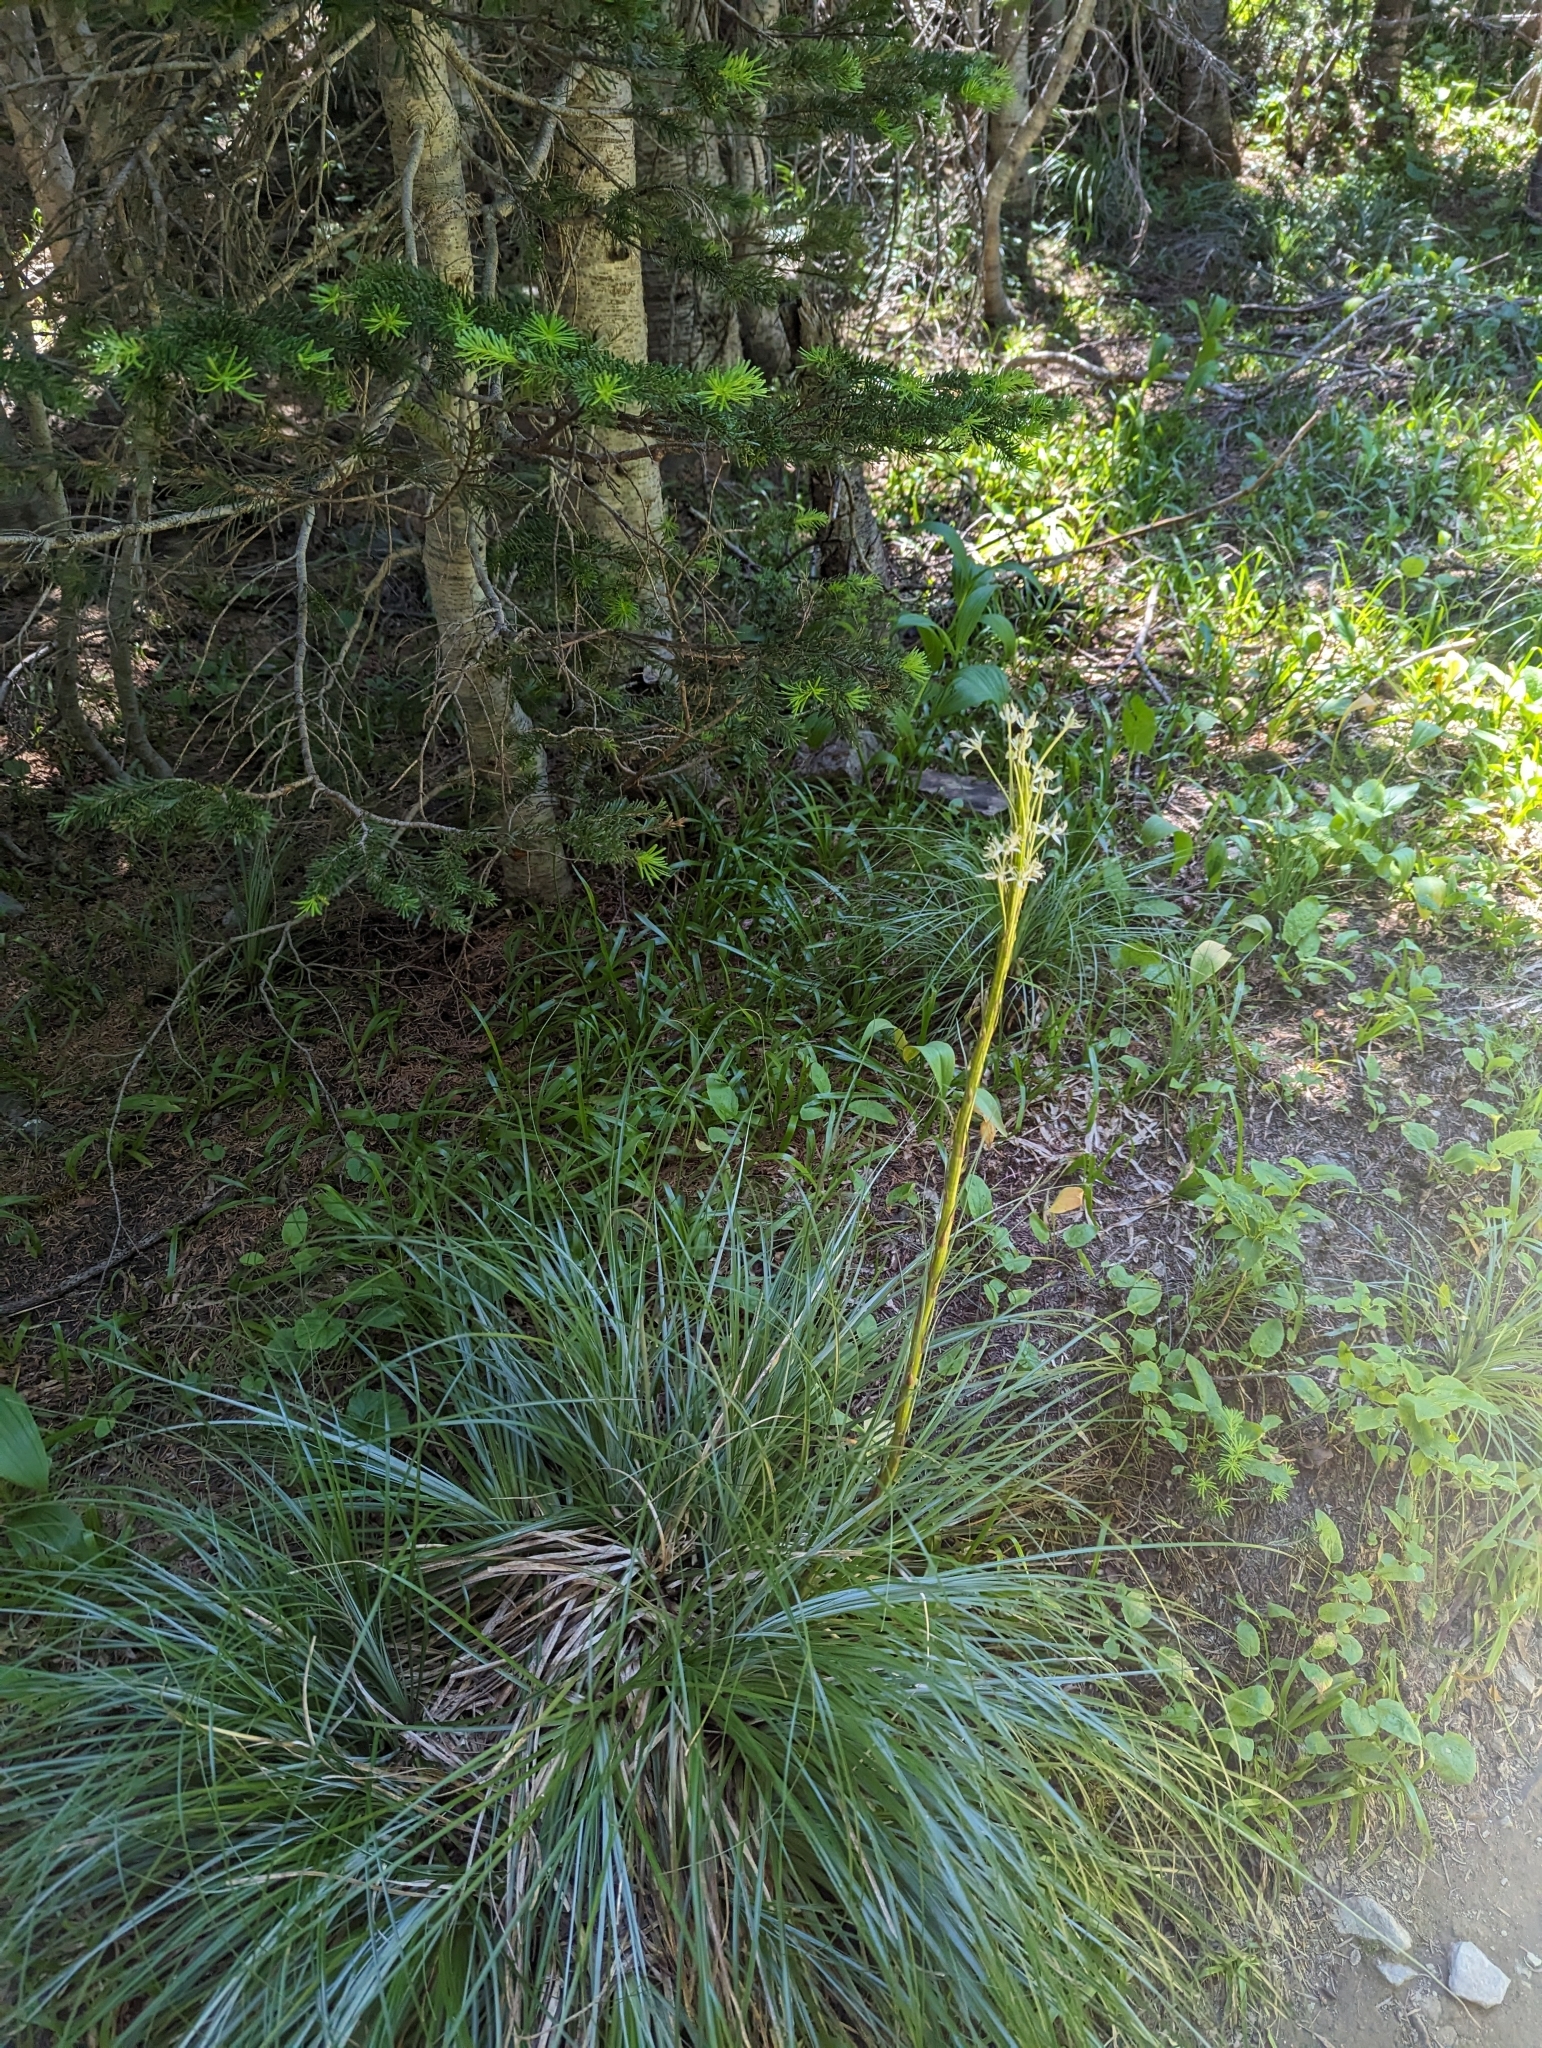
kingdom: Plantae
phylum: Tracheophyta
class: Liliopsida
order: Liliales
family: Melanthiaceae
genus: Xerophyllum
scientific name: Xerophyllum tenax
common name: Bear-grass
